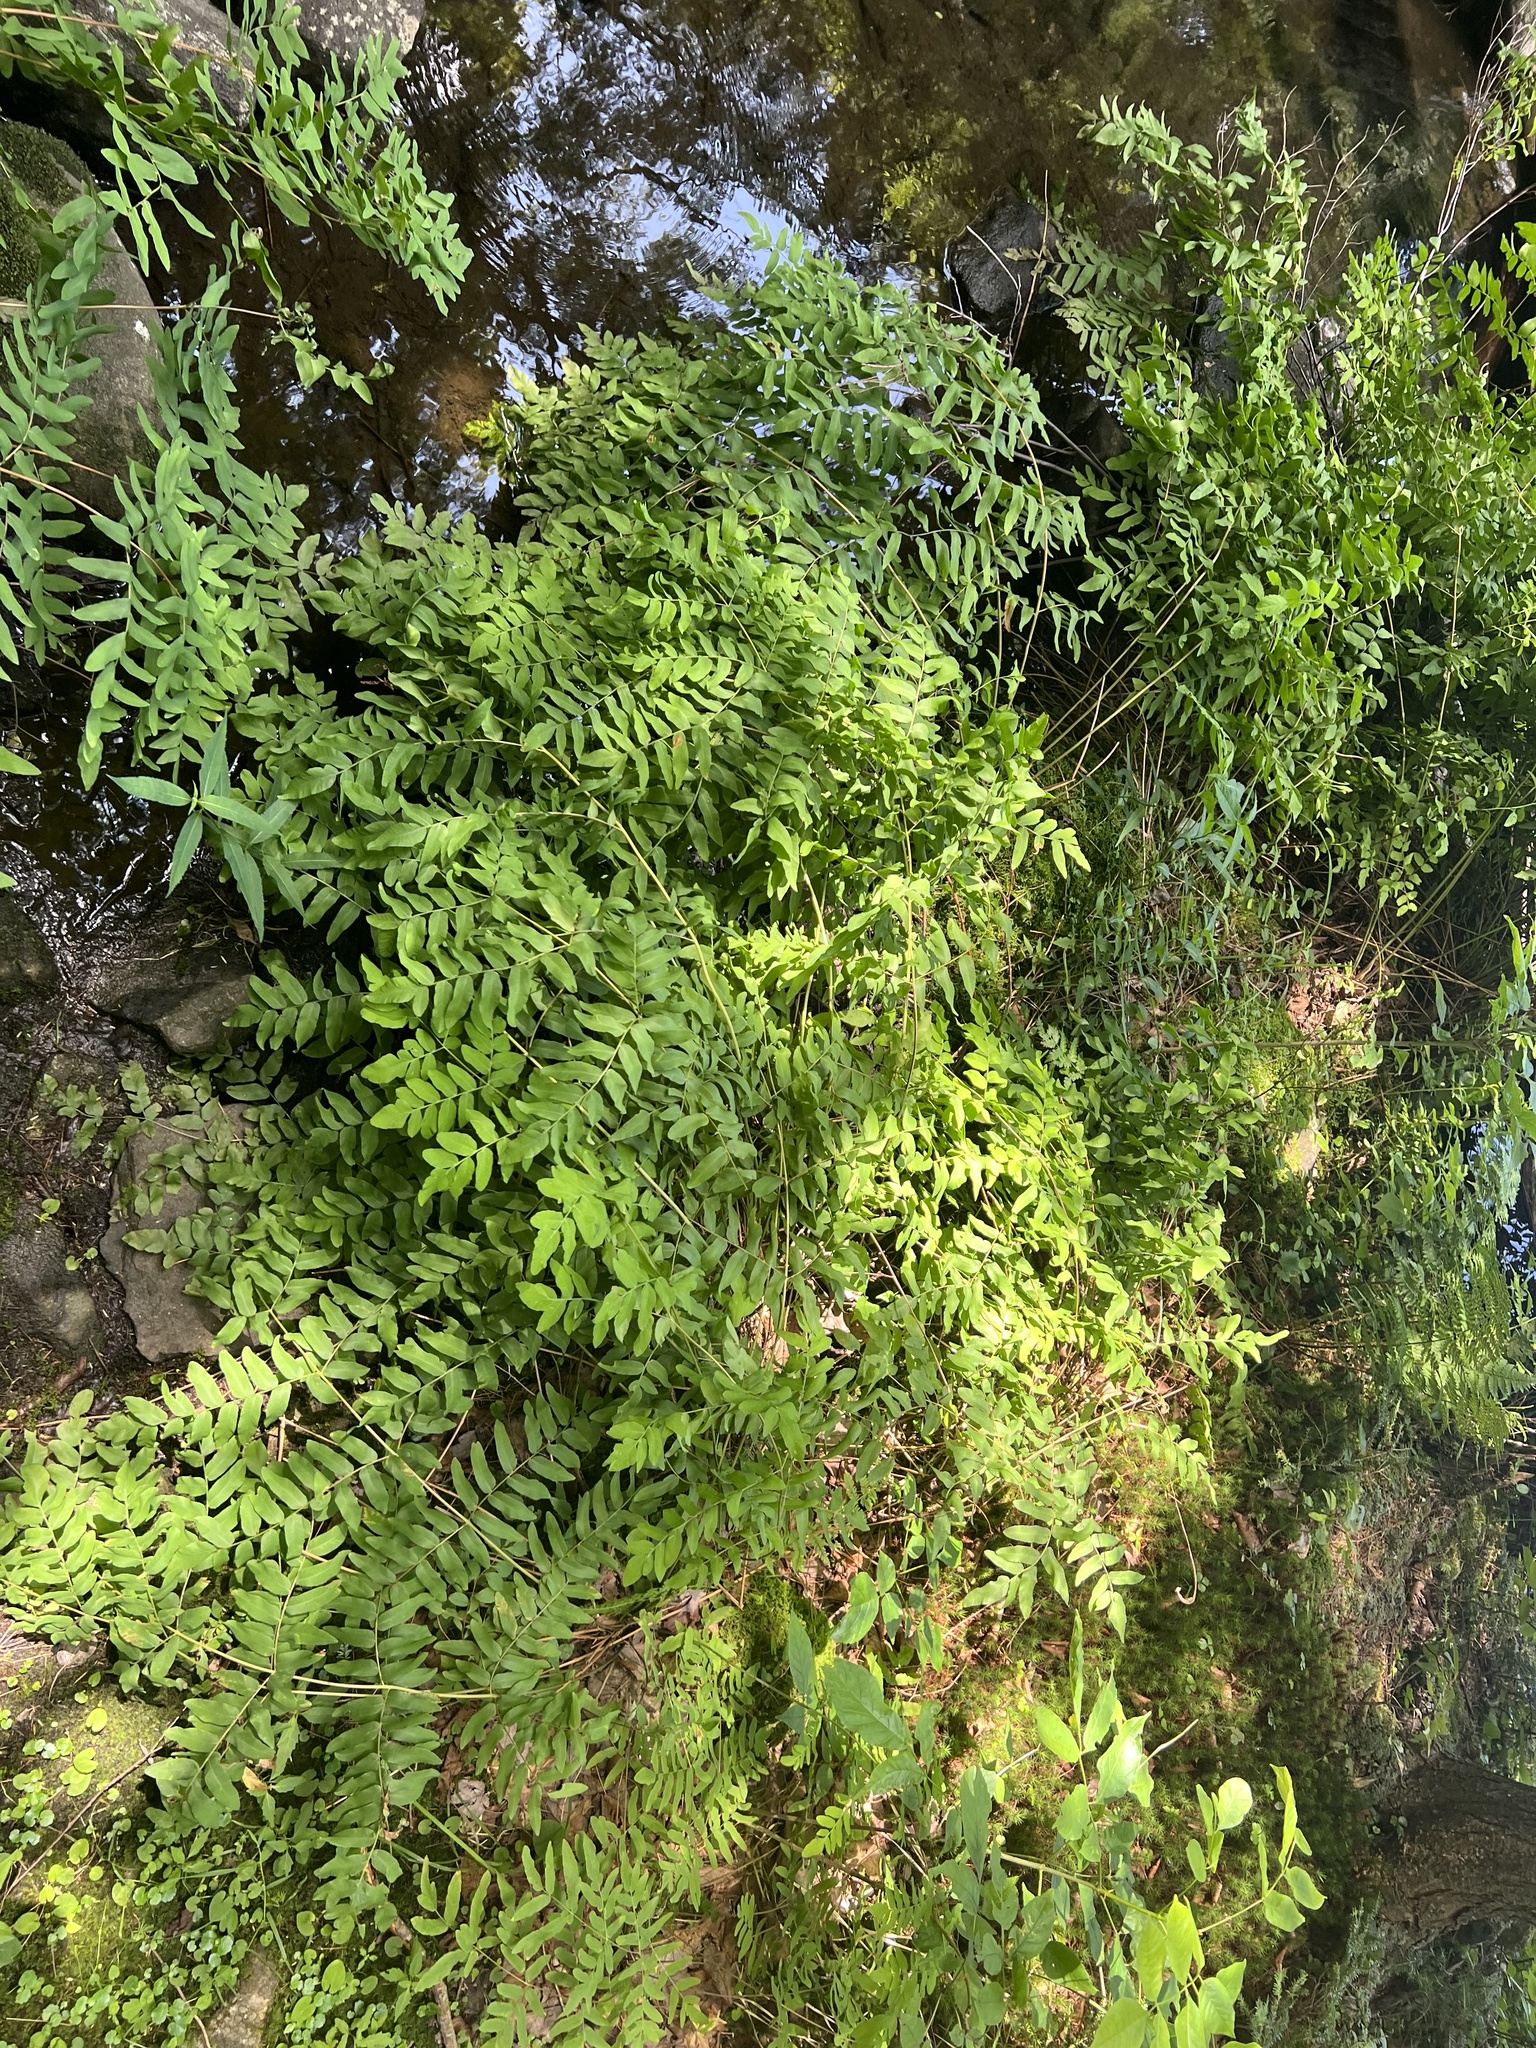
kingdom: Plantae
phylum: Tracheophyta
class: Polypodiopsida
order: Osmundales
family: Osmundaceae
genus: Osmunda
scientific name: Osmunda spectabilis
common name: American royal fern
